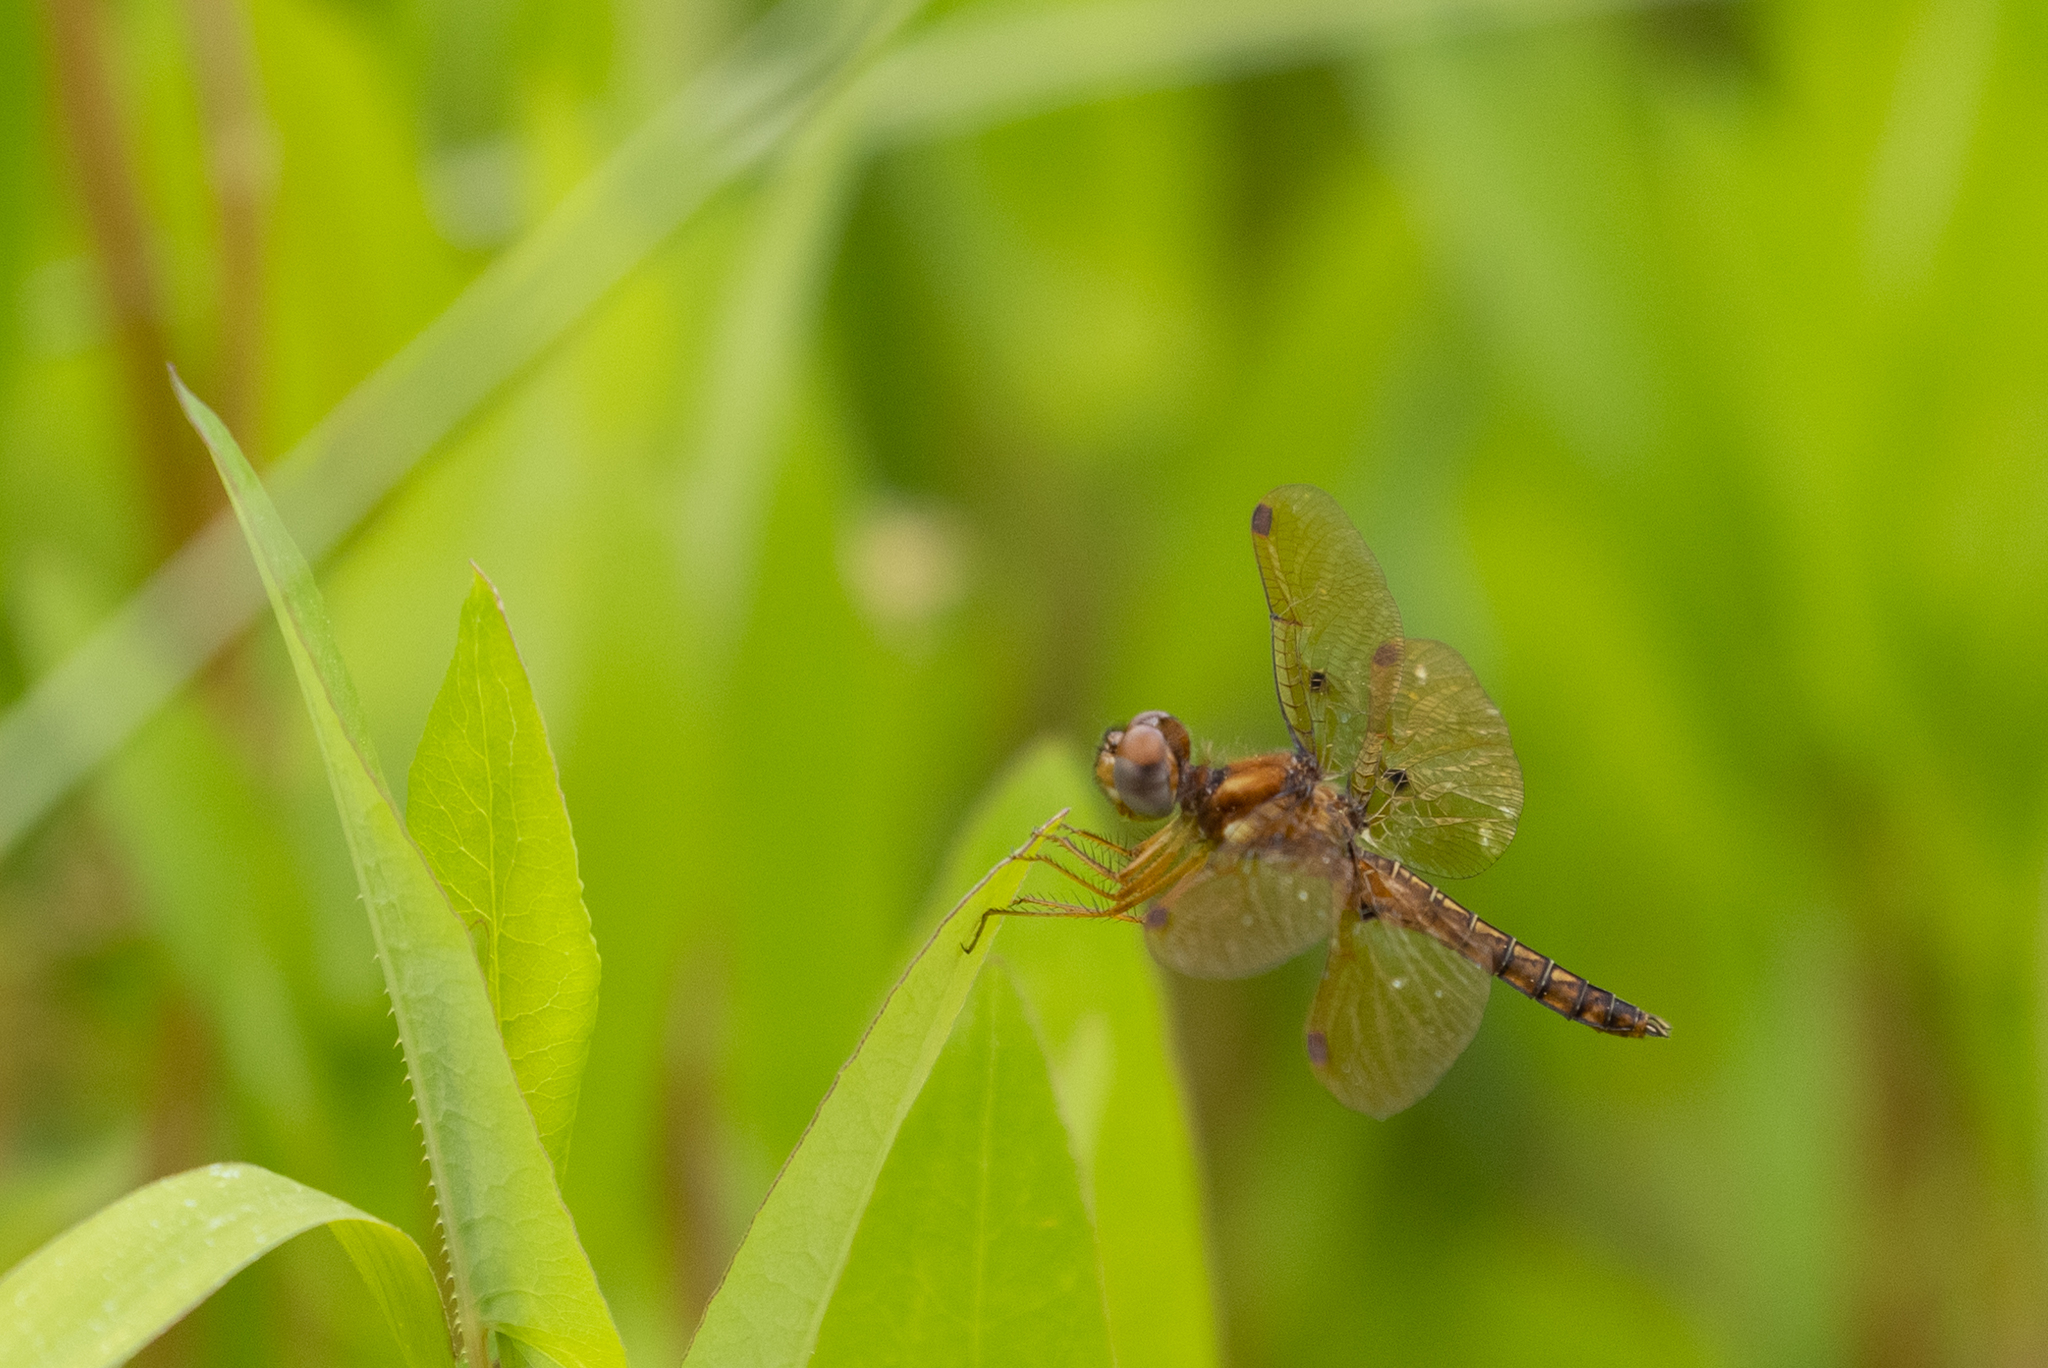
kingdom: Animalia
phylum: Arthropoda
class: Insecta
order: Odonata
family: Libellulidae
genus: Perithemis
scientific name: Perithemis tenera
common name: Eastern amberwing
